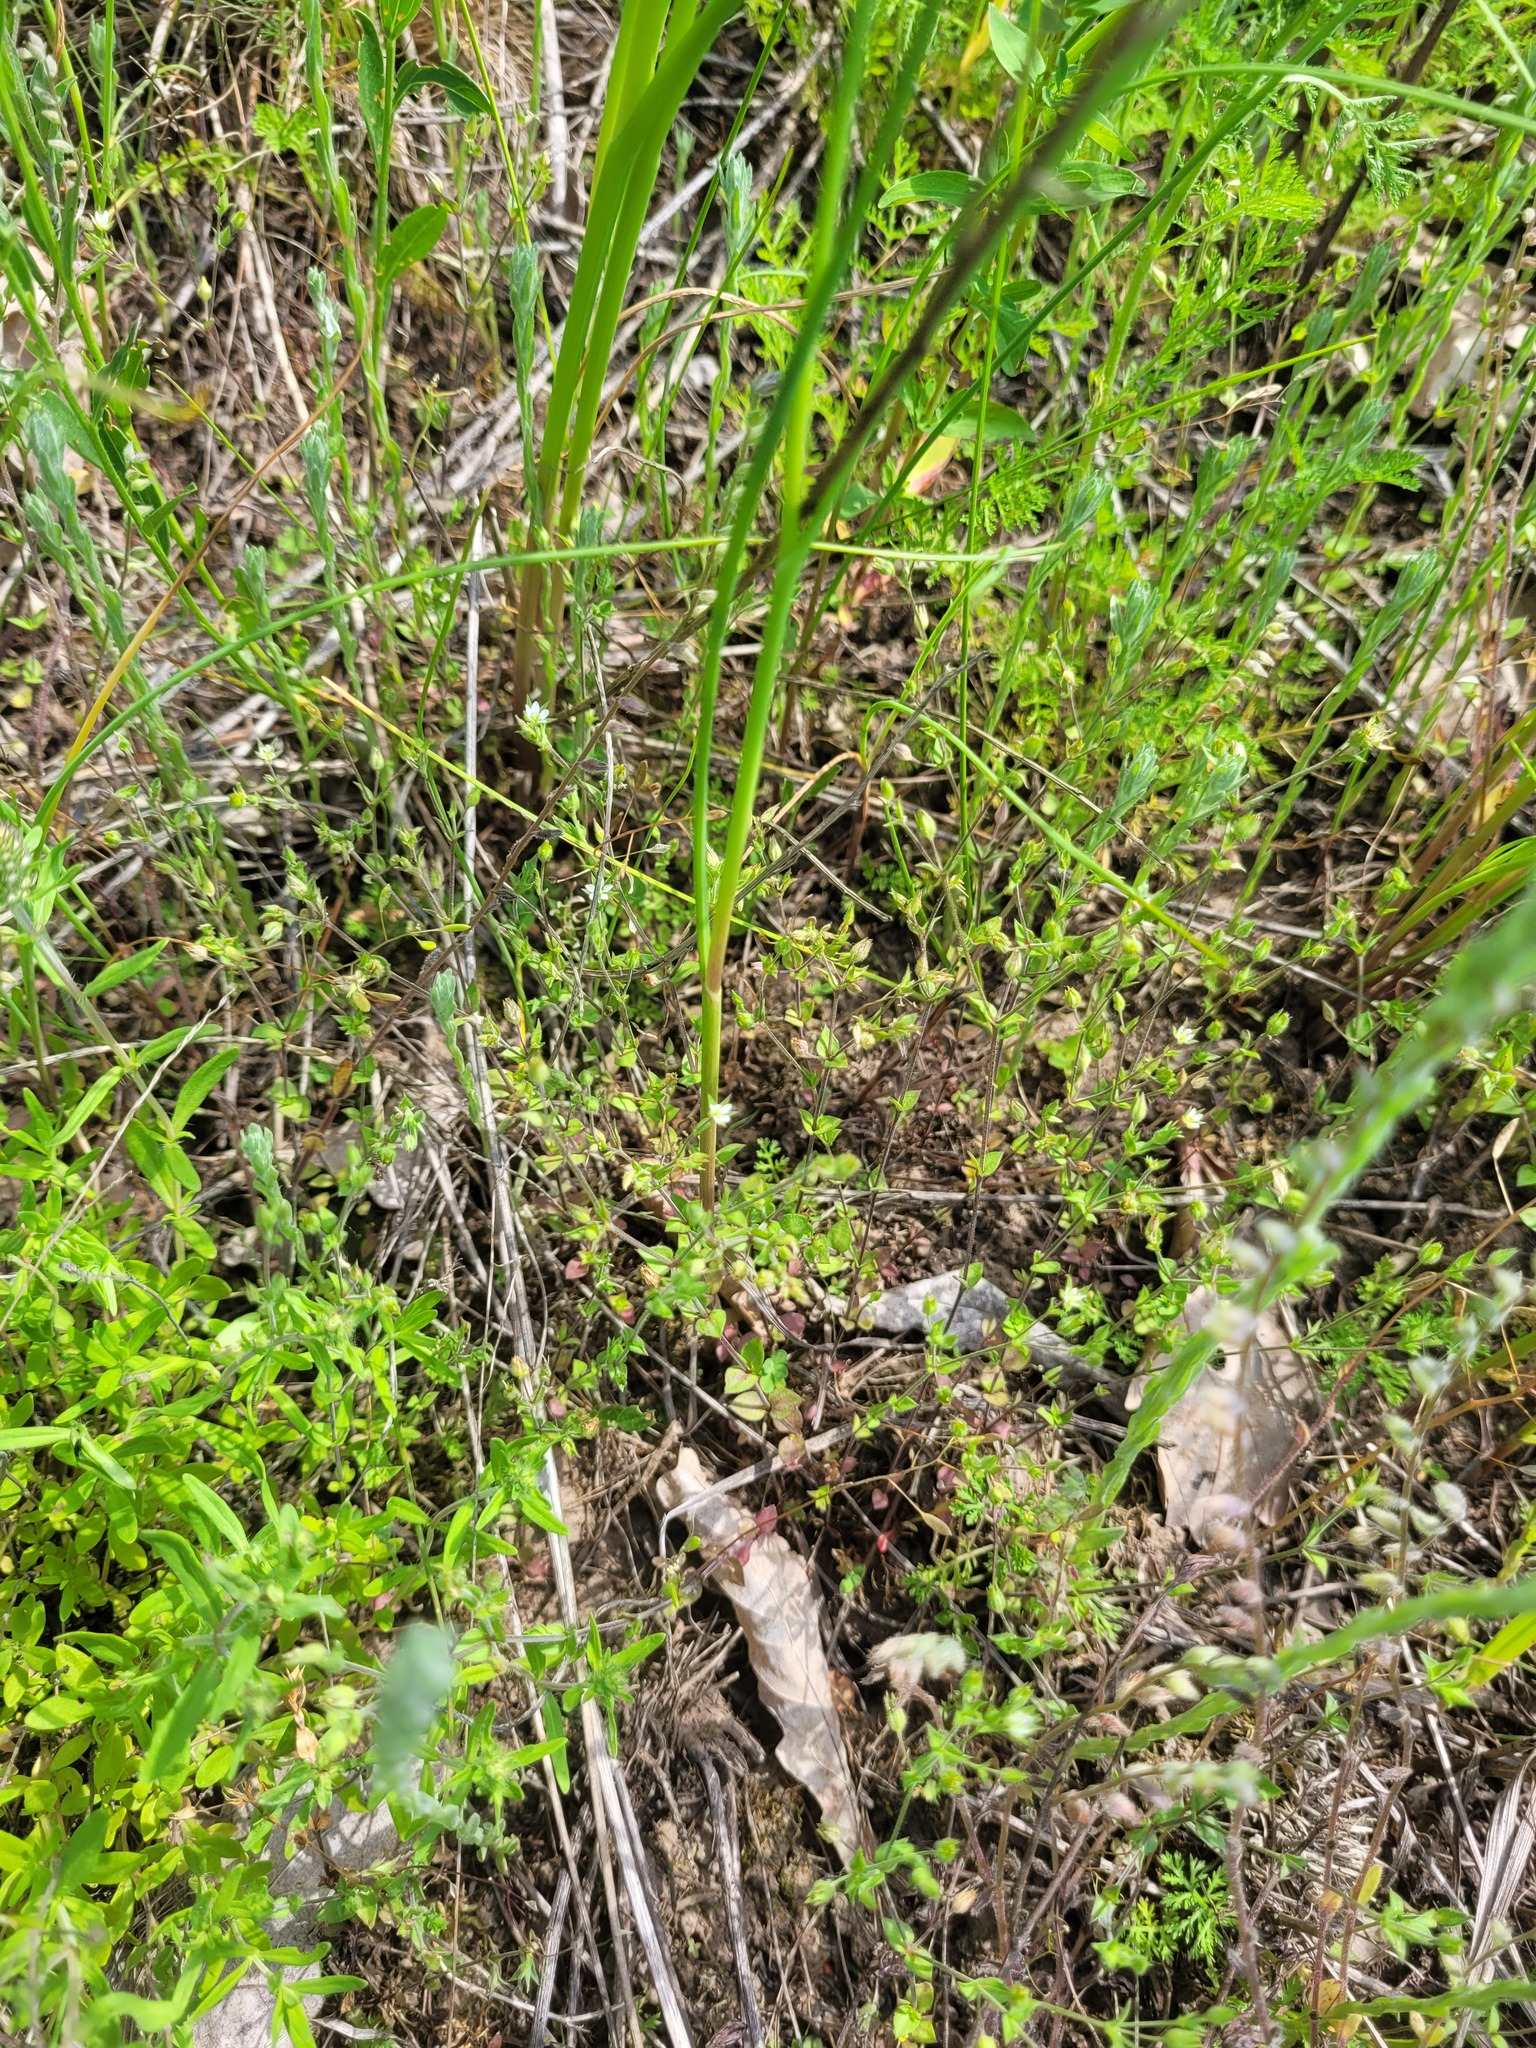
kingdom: Plantae
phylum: Tracheophyta
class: Magnoliopsida
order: Caryophyllales
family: Caryophyllaceae
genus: Arenaria
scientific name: Arenaria serpyllifolia
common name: Thyme-leaved sandwort
